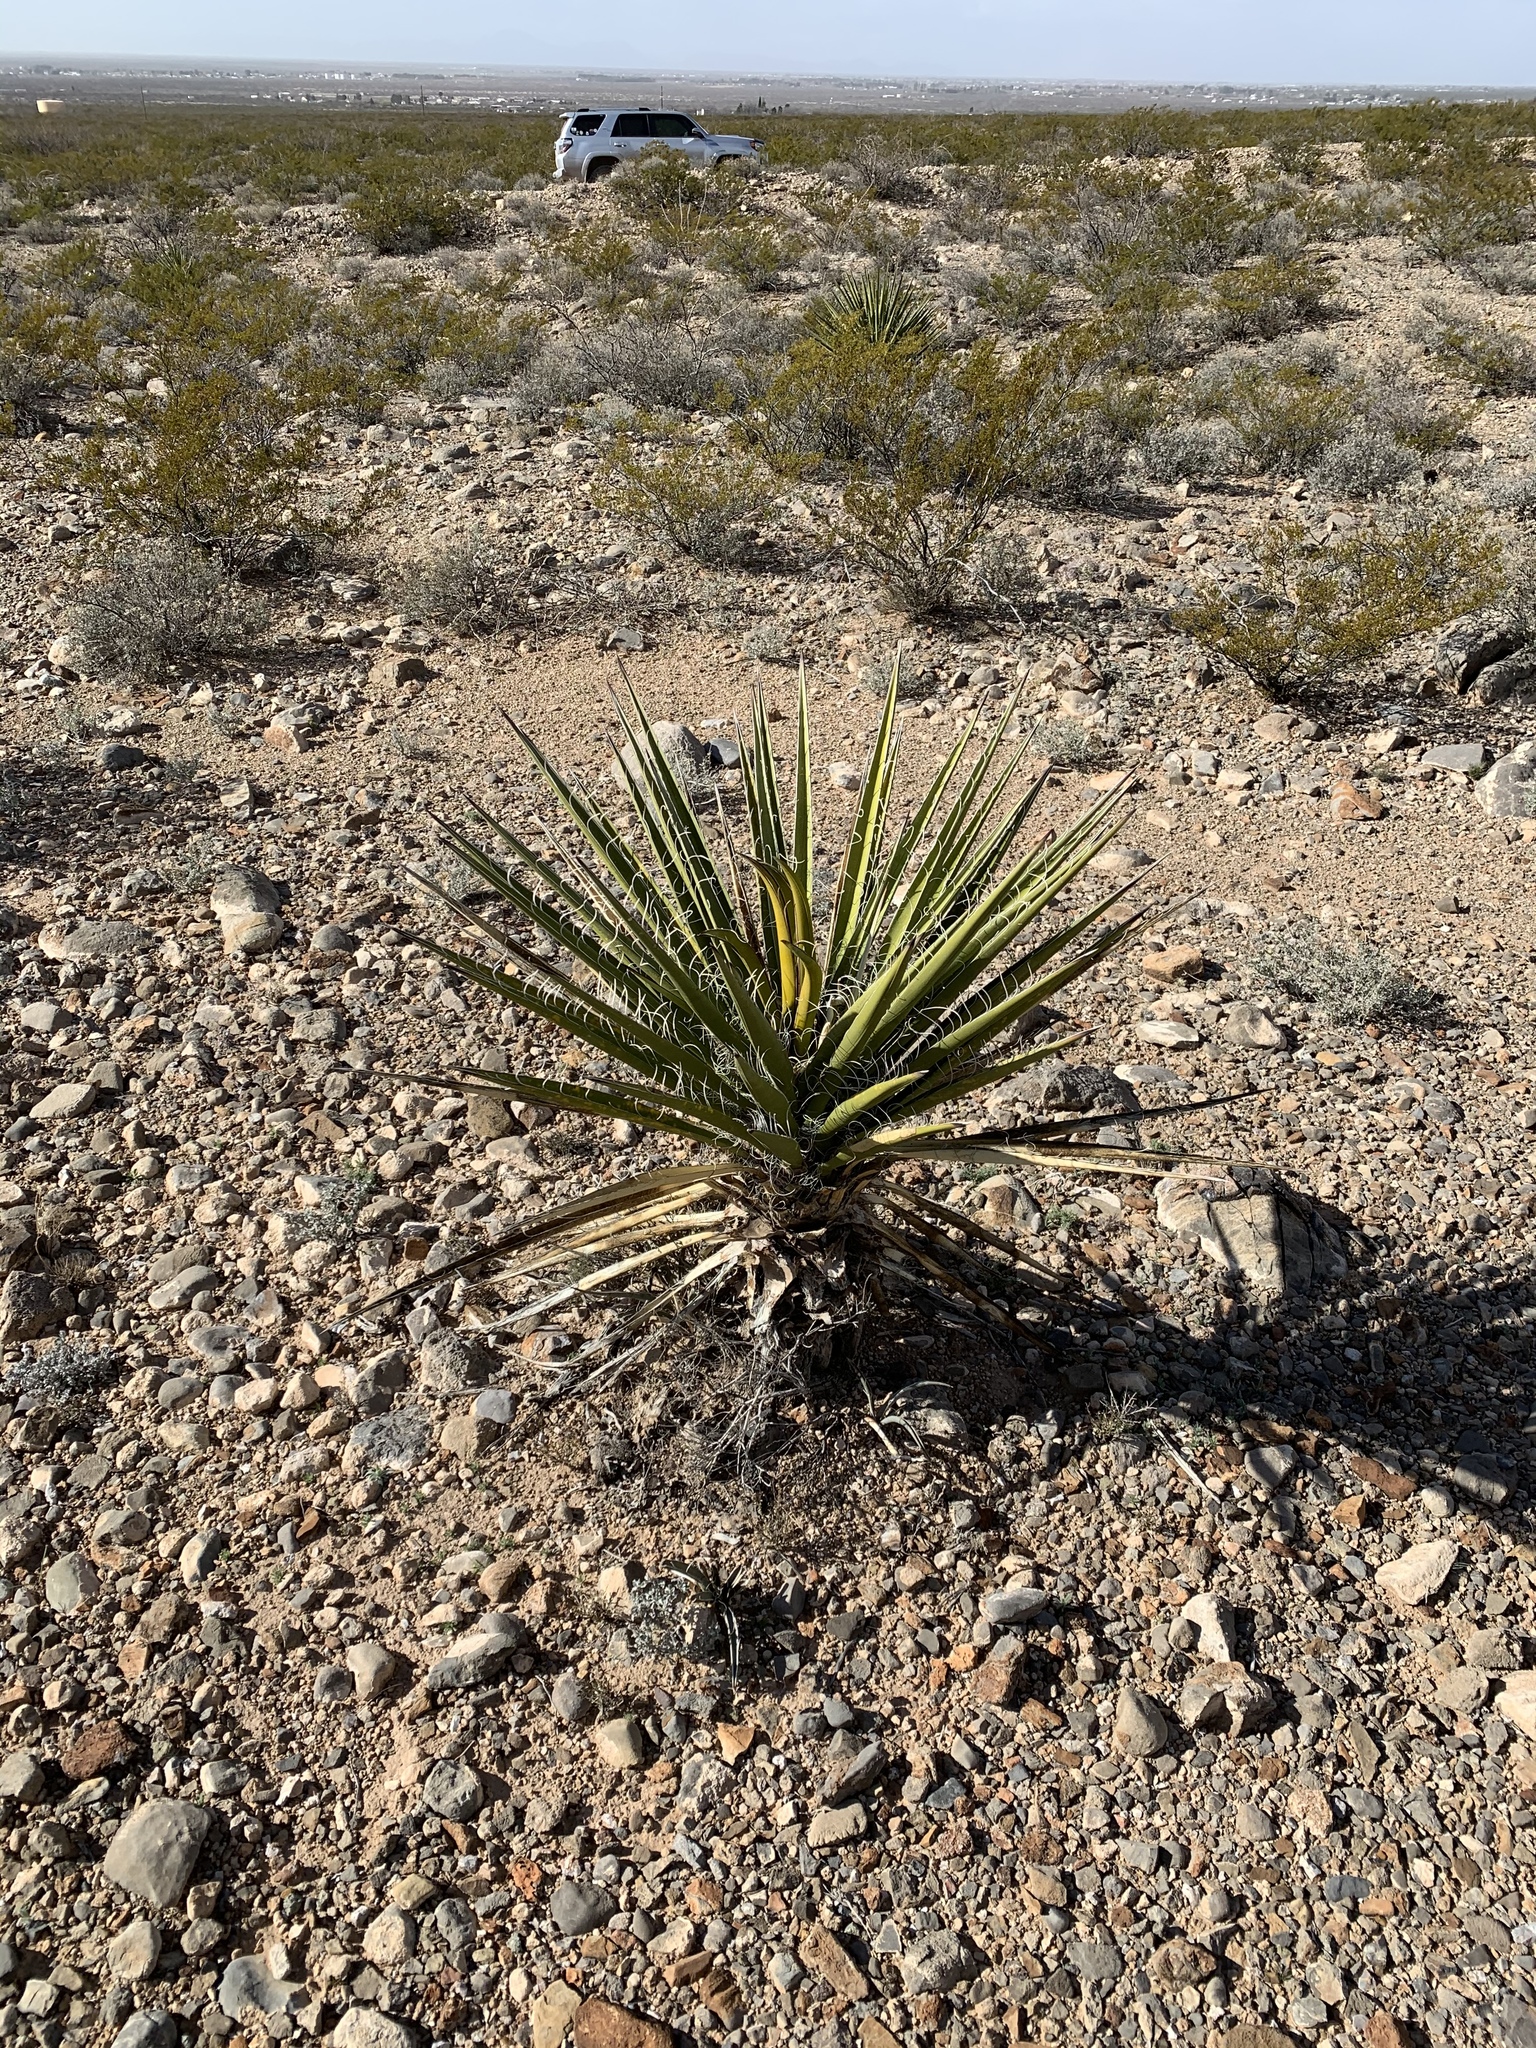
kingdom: Plantae
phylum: Tracheophyta
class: Liliopsida
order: Asparagales
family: Asparagaceae
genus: Yucca
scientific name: Yucca treculiana
